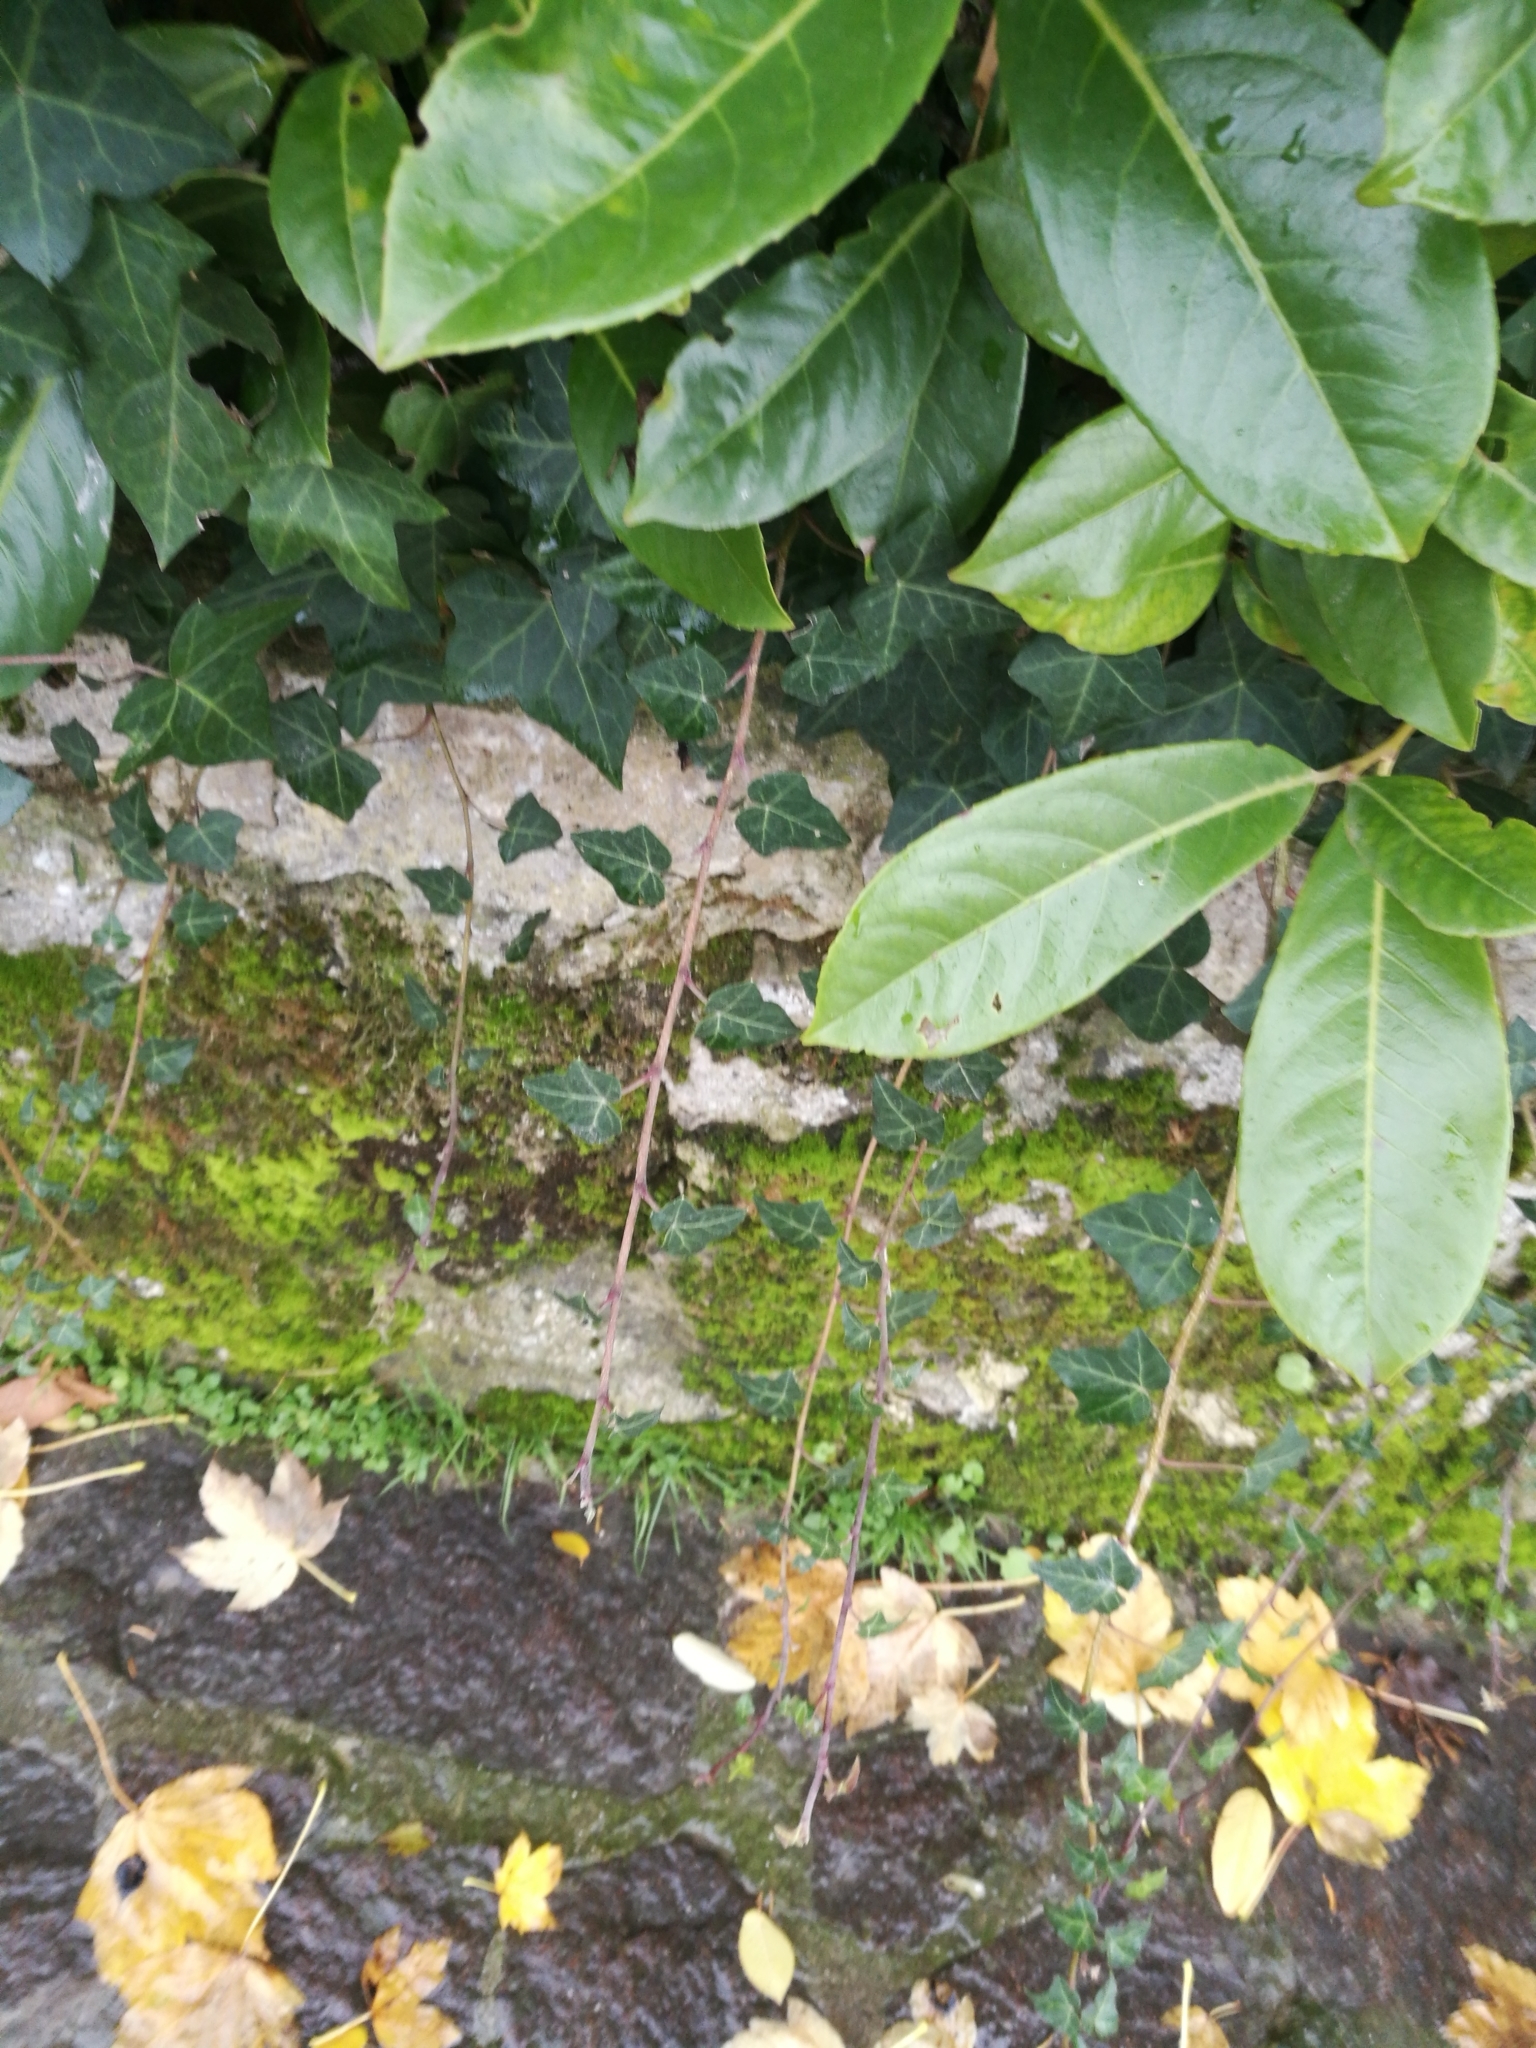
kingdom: Plantae
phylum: Tracheophyta
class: Magnoliopsida
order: Apiales
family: Araliaceae
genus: Hedera
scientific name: Hedera helix
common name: Ivy
